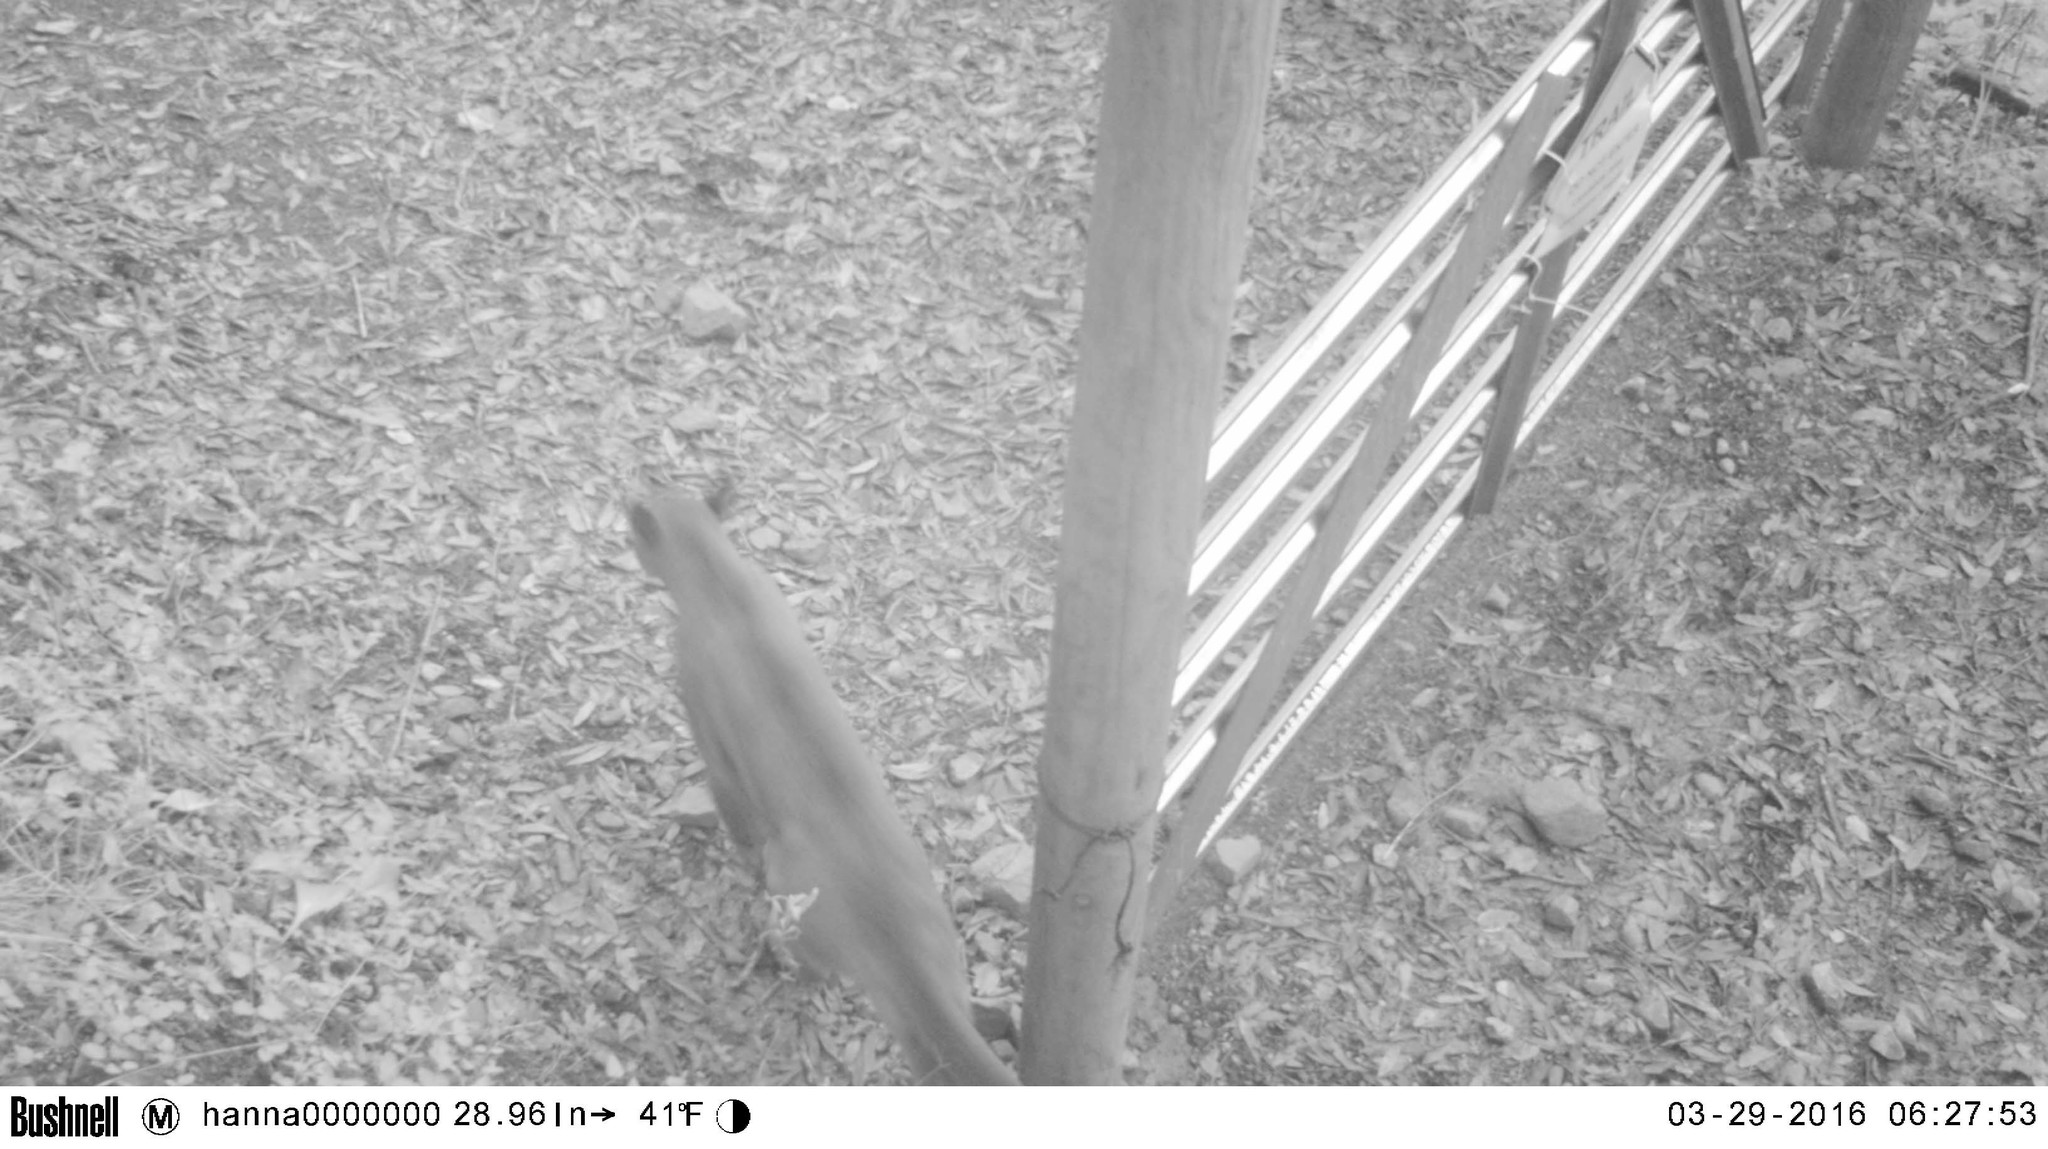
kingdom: Animalia
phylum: Chordata
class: Mammalia
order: Carnivora
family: Felidae
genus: Puma
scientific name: Puma concolor
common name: Puma
